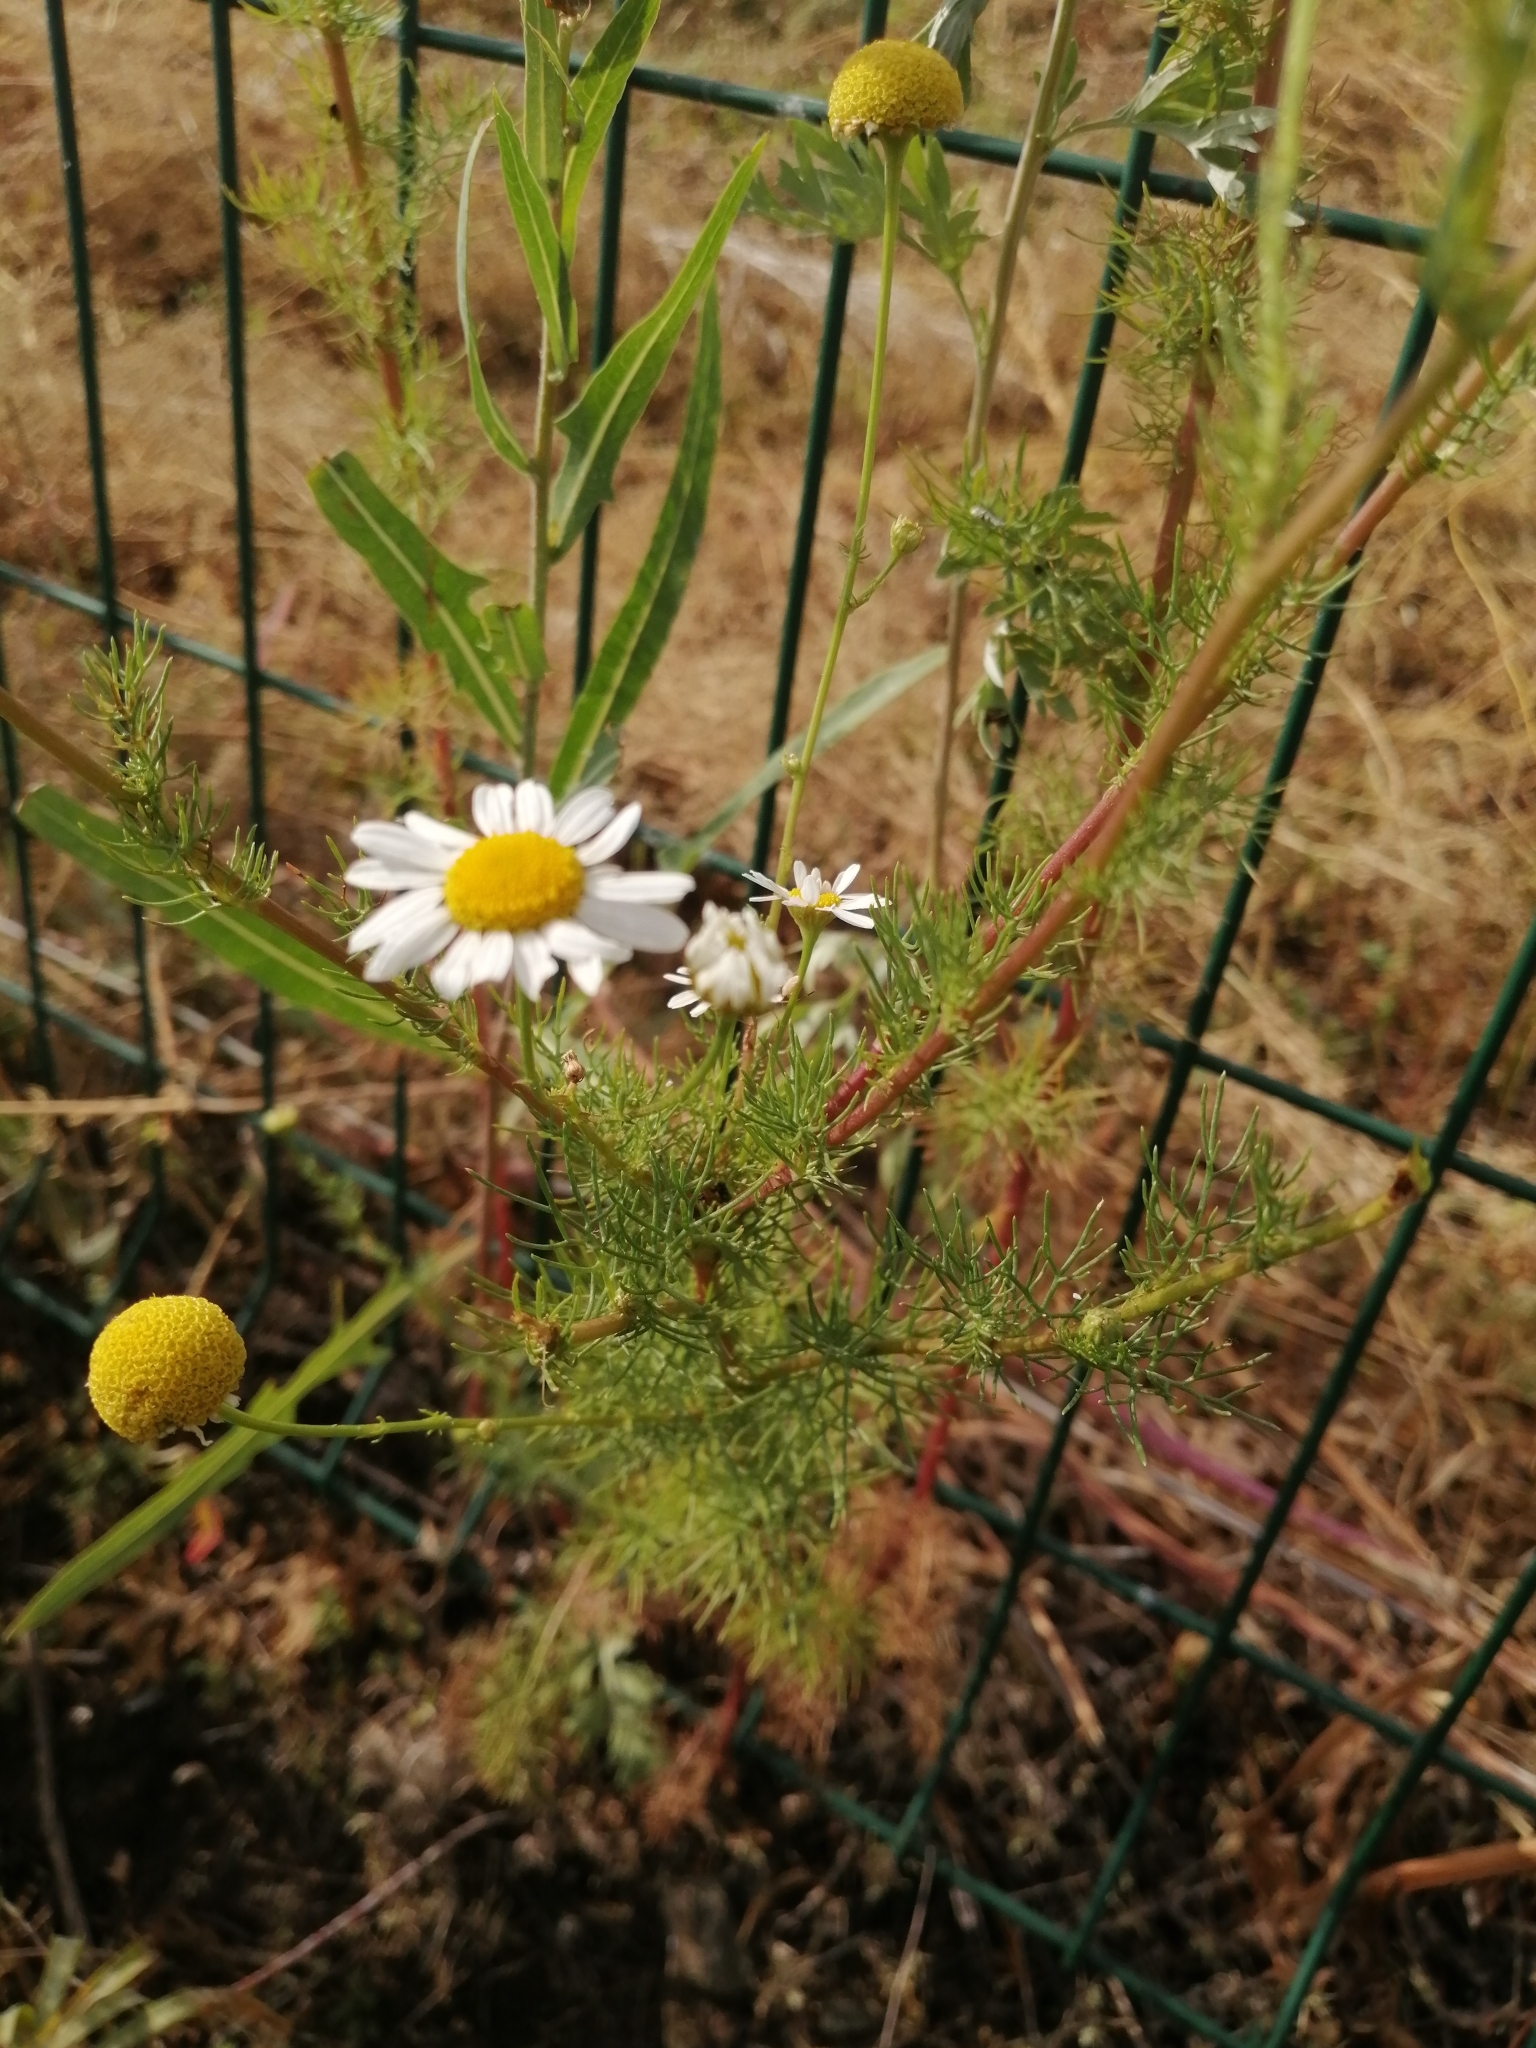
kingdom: Plantae
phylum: Tracheophyta
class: Magnoliopsida
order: Asterales
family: Asteraceae
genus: Tripleurospermum
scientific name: Tripleurospermum inodorum
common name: Scentless mayweed
